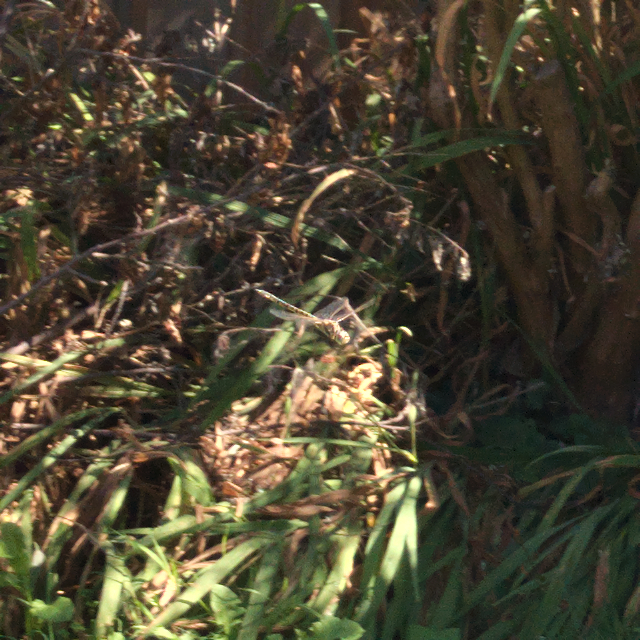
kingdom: Animalia
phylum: Arthropoda
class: Insecta
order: Odonata
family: Corduliidae
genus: Hemicordulia
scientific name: Hemicordulia tau
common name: Tau emerald
